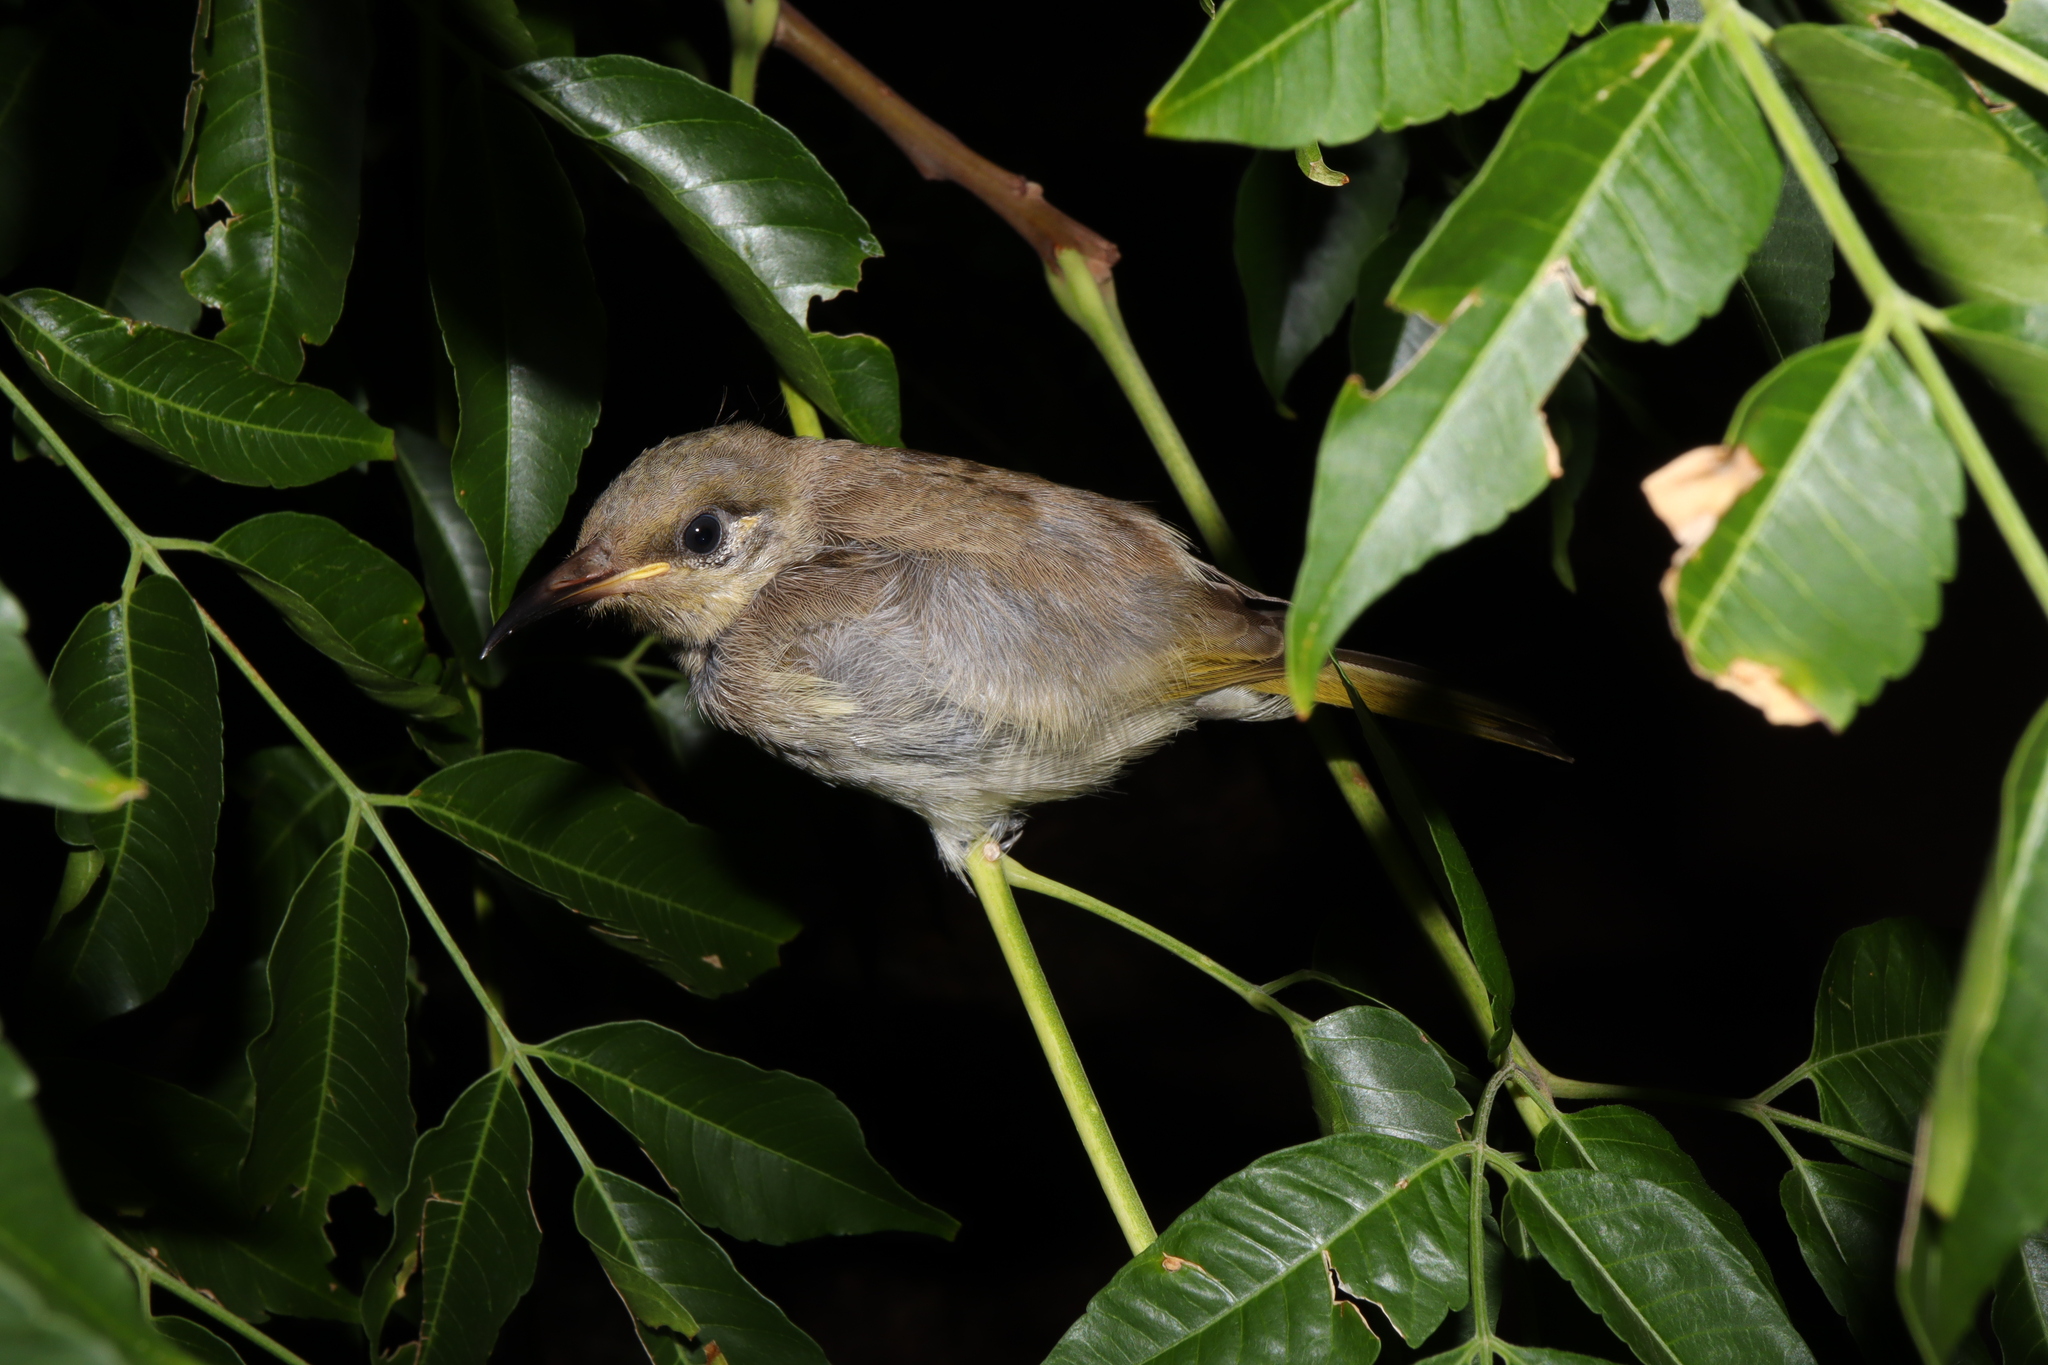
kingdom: Animalia
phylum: Chordata
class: Aves
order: Passeriformes
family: Meliphagidae
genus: Lichmera
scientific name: Lichmera indistincta
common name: Brown honeyeater
